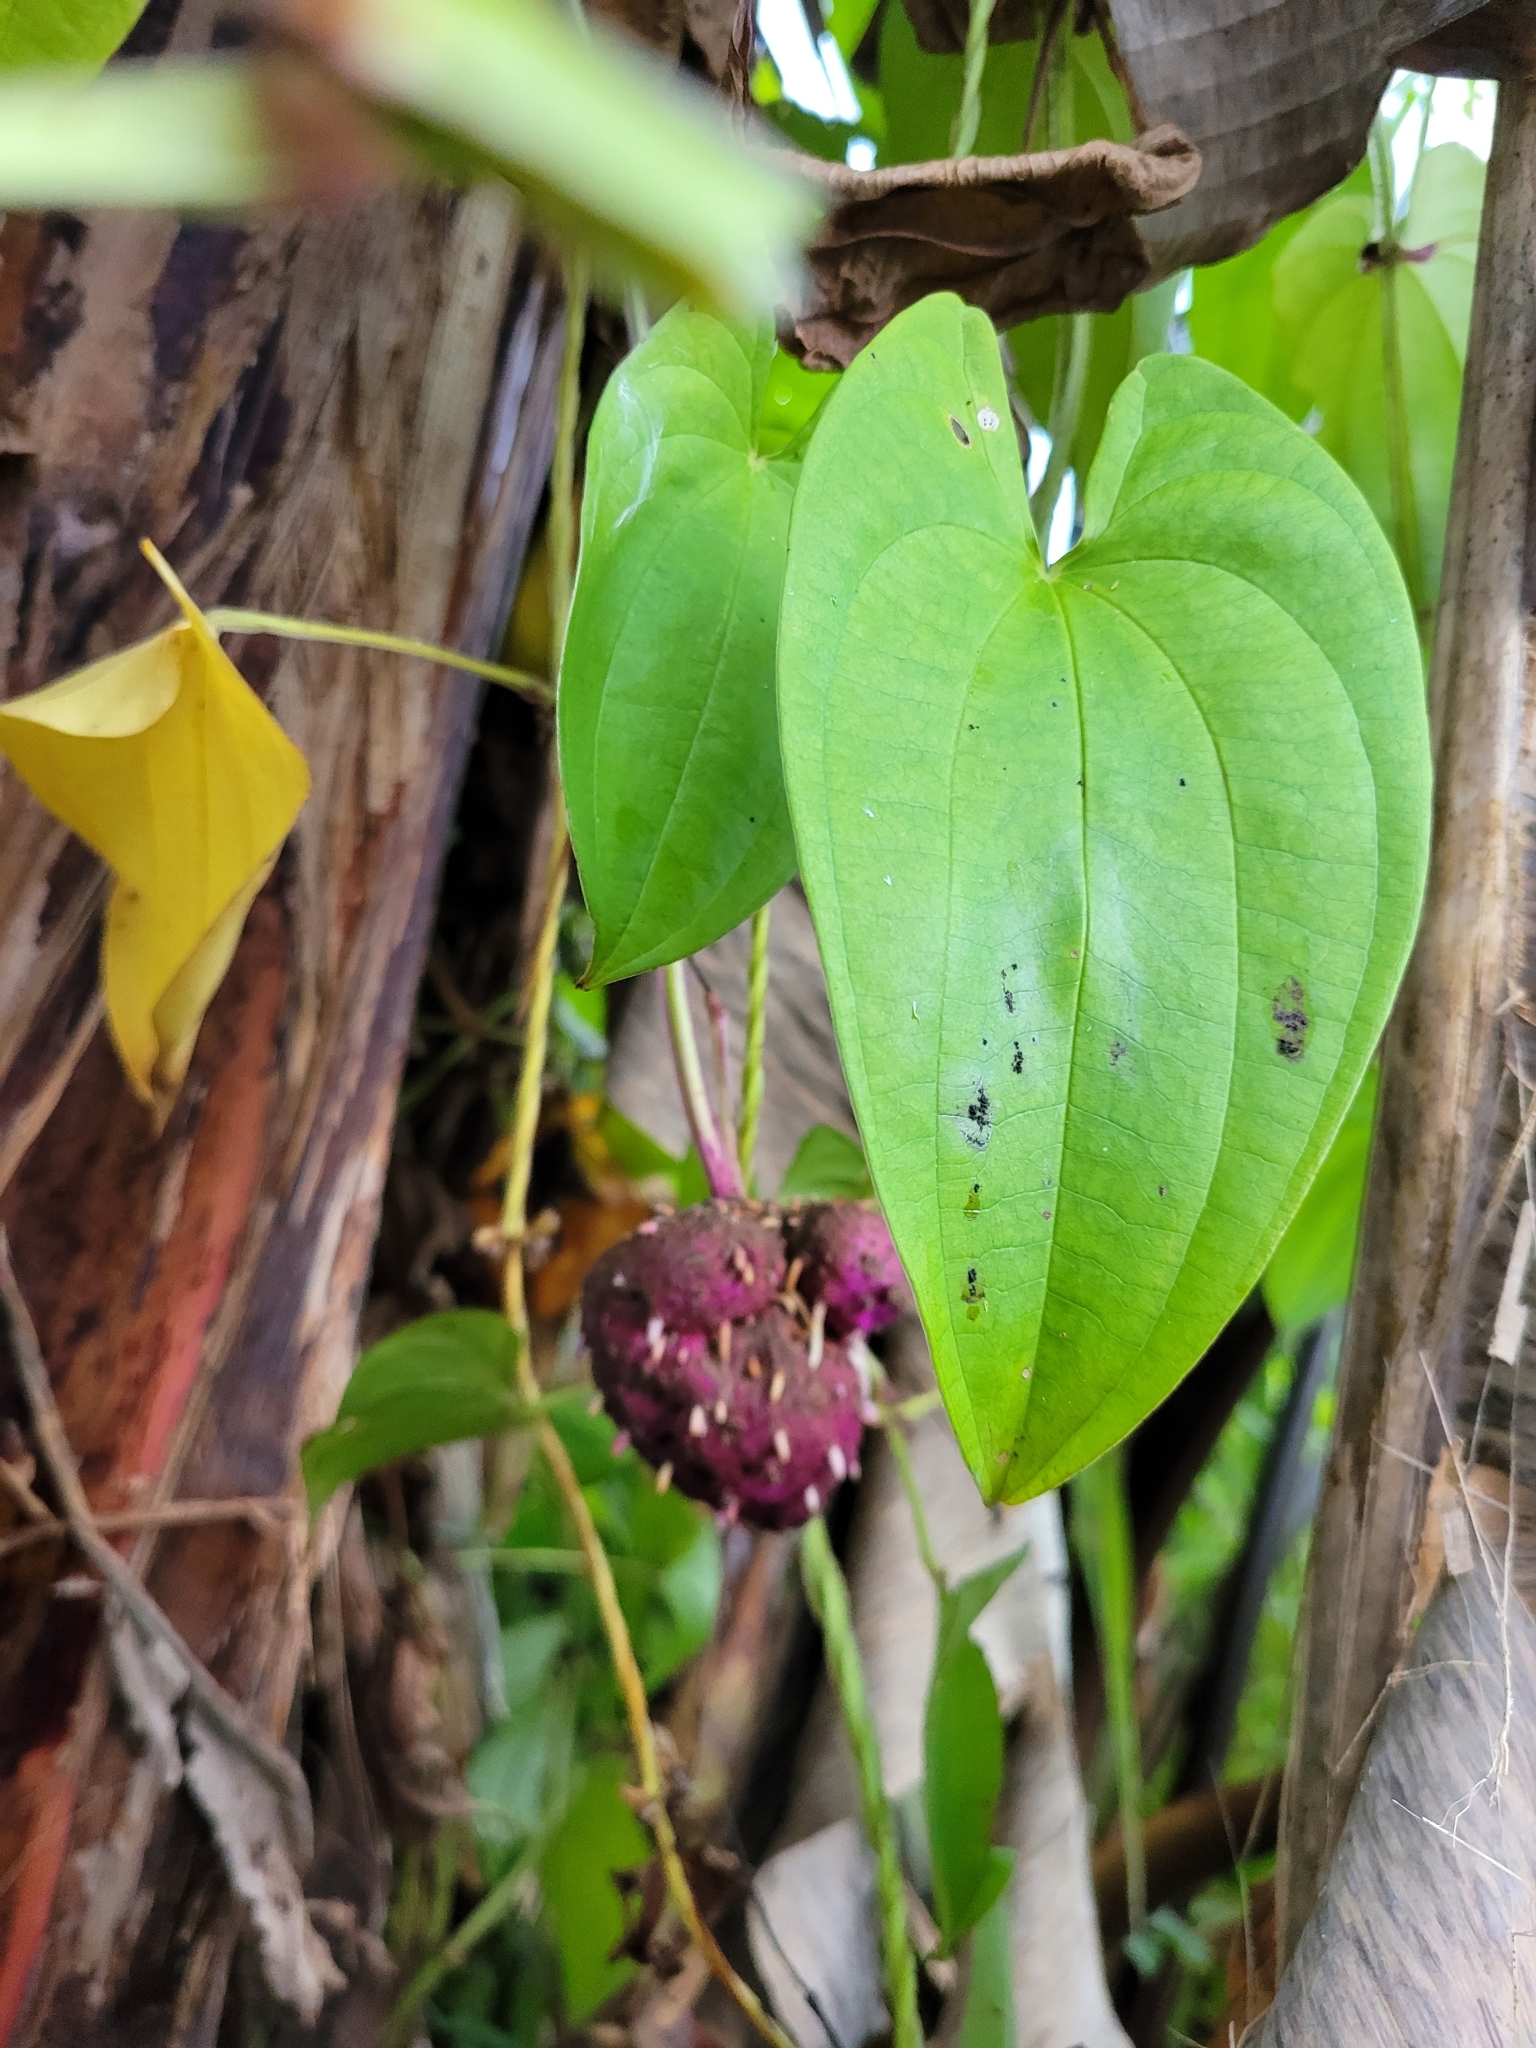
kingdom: Plantae
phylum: Tracheophyta
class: Liliopsida
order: Dioscoreales
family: Dioscoreaceae
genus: Dioscorea
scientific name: Dioscorea alata
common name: Water yam
